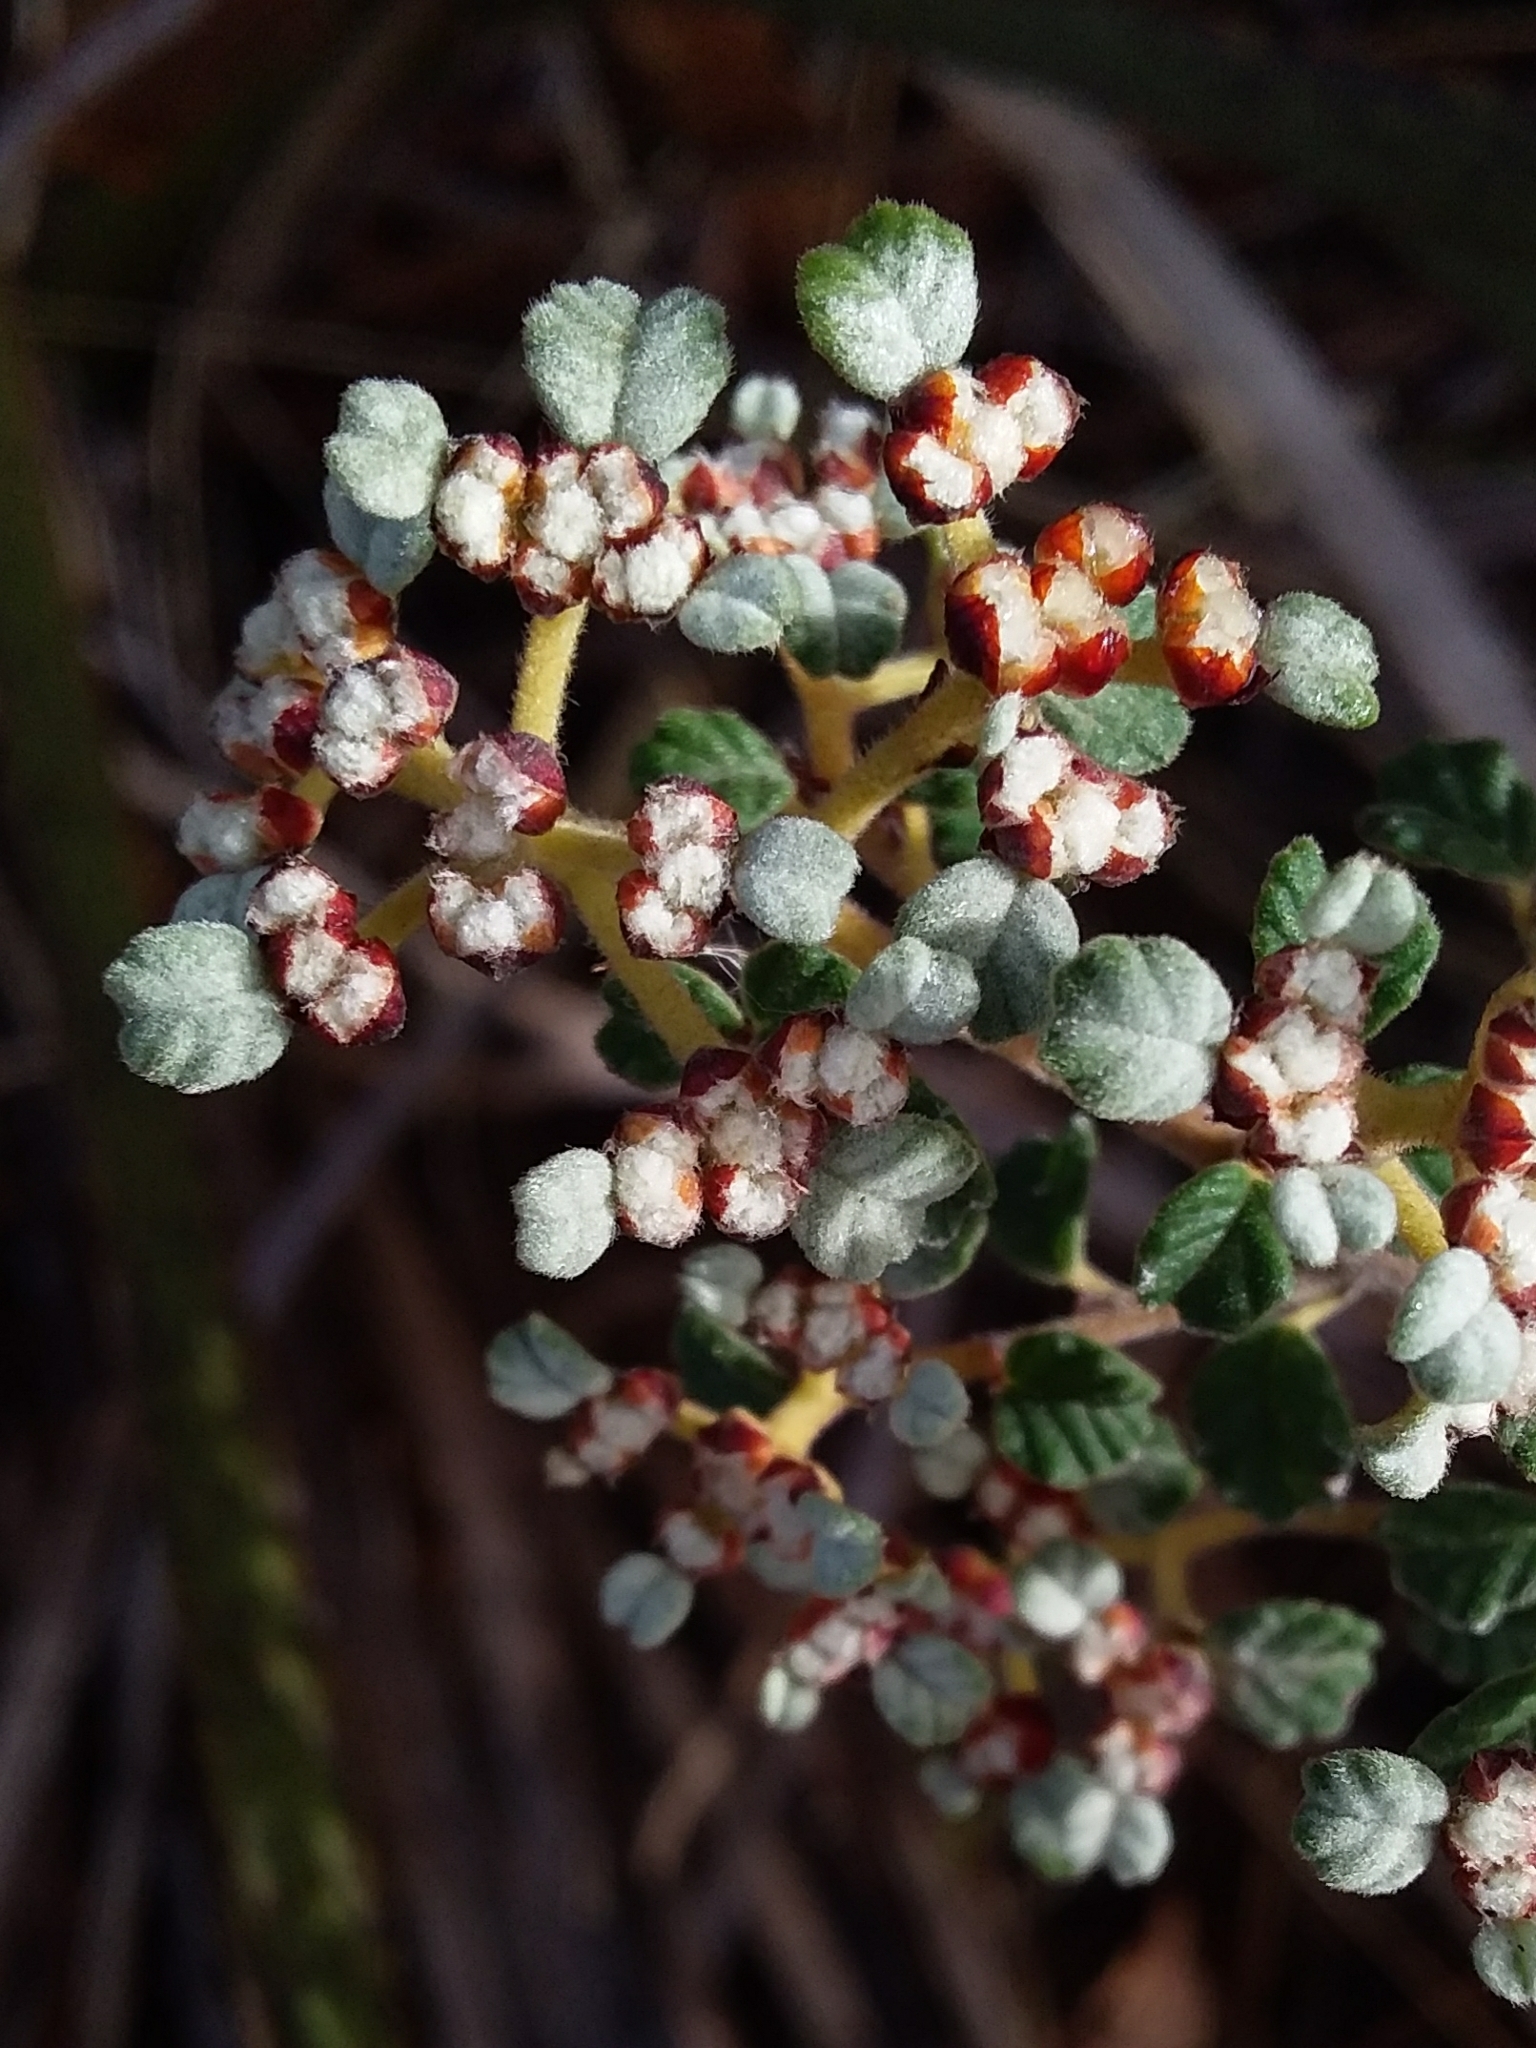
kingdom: Plantae
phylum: Tracheophyta
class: Magnoliopsida
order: Rosales
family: Rhamnaceae
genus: Spyridium
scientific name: Spyridium parvifolium
